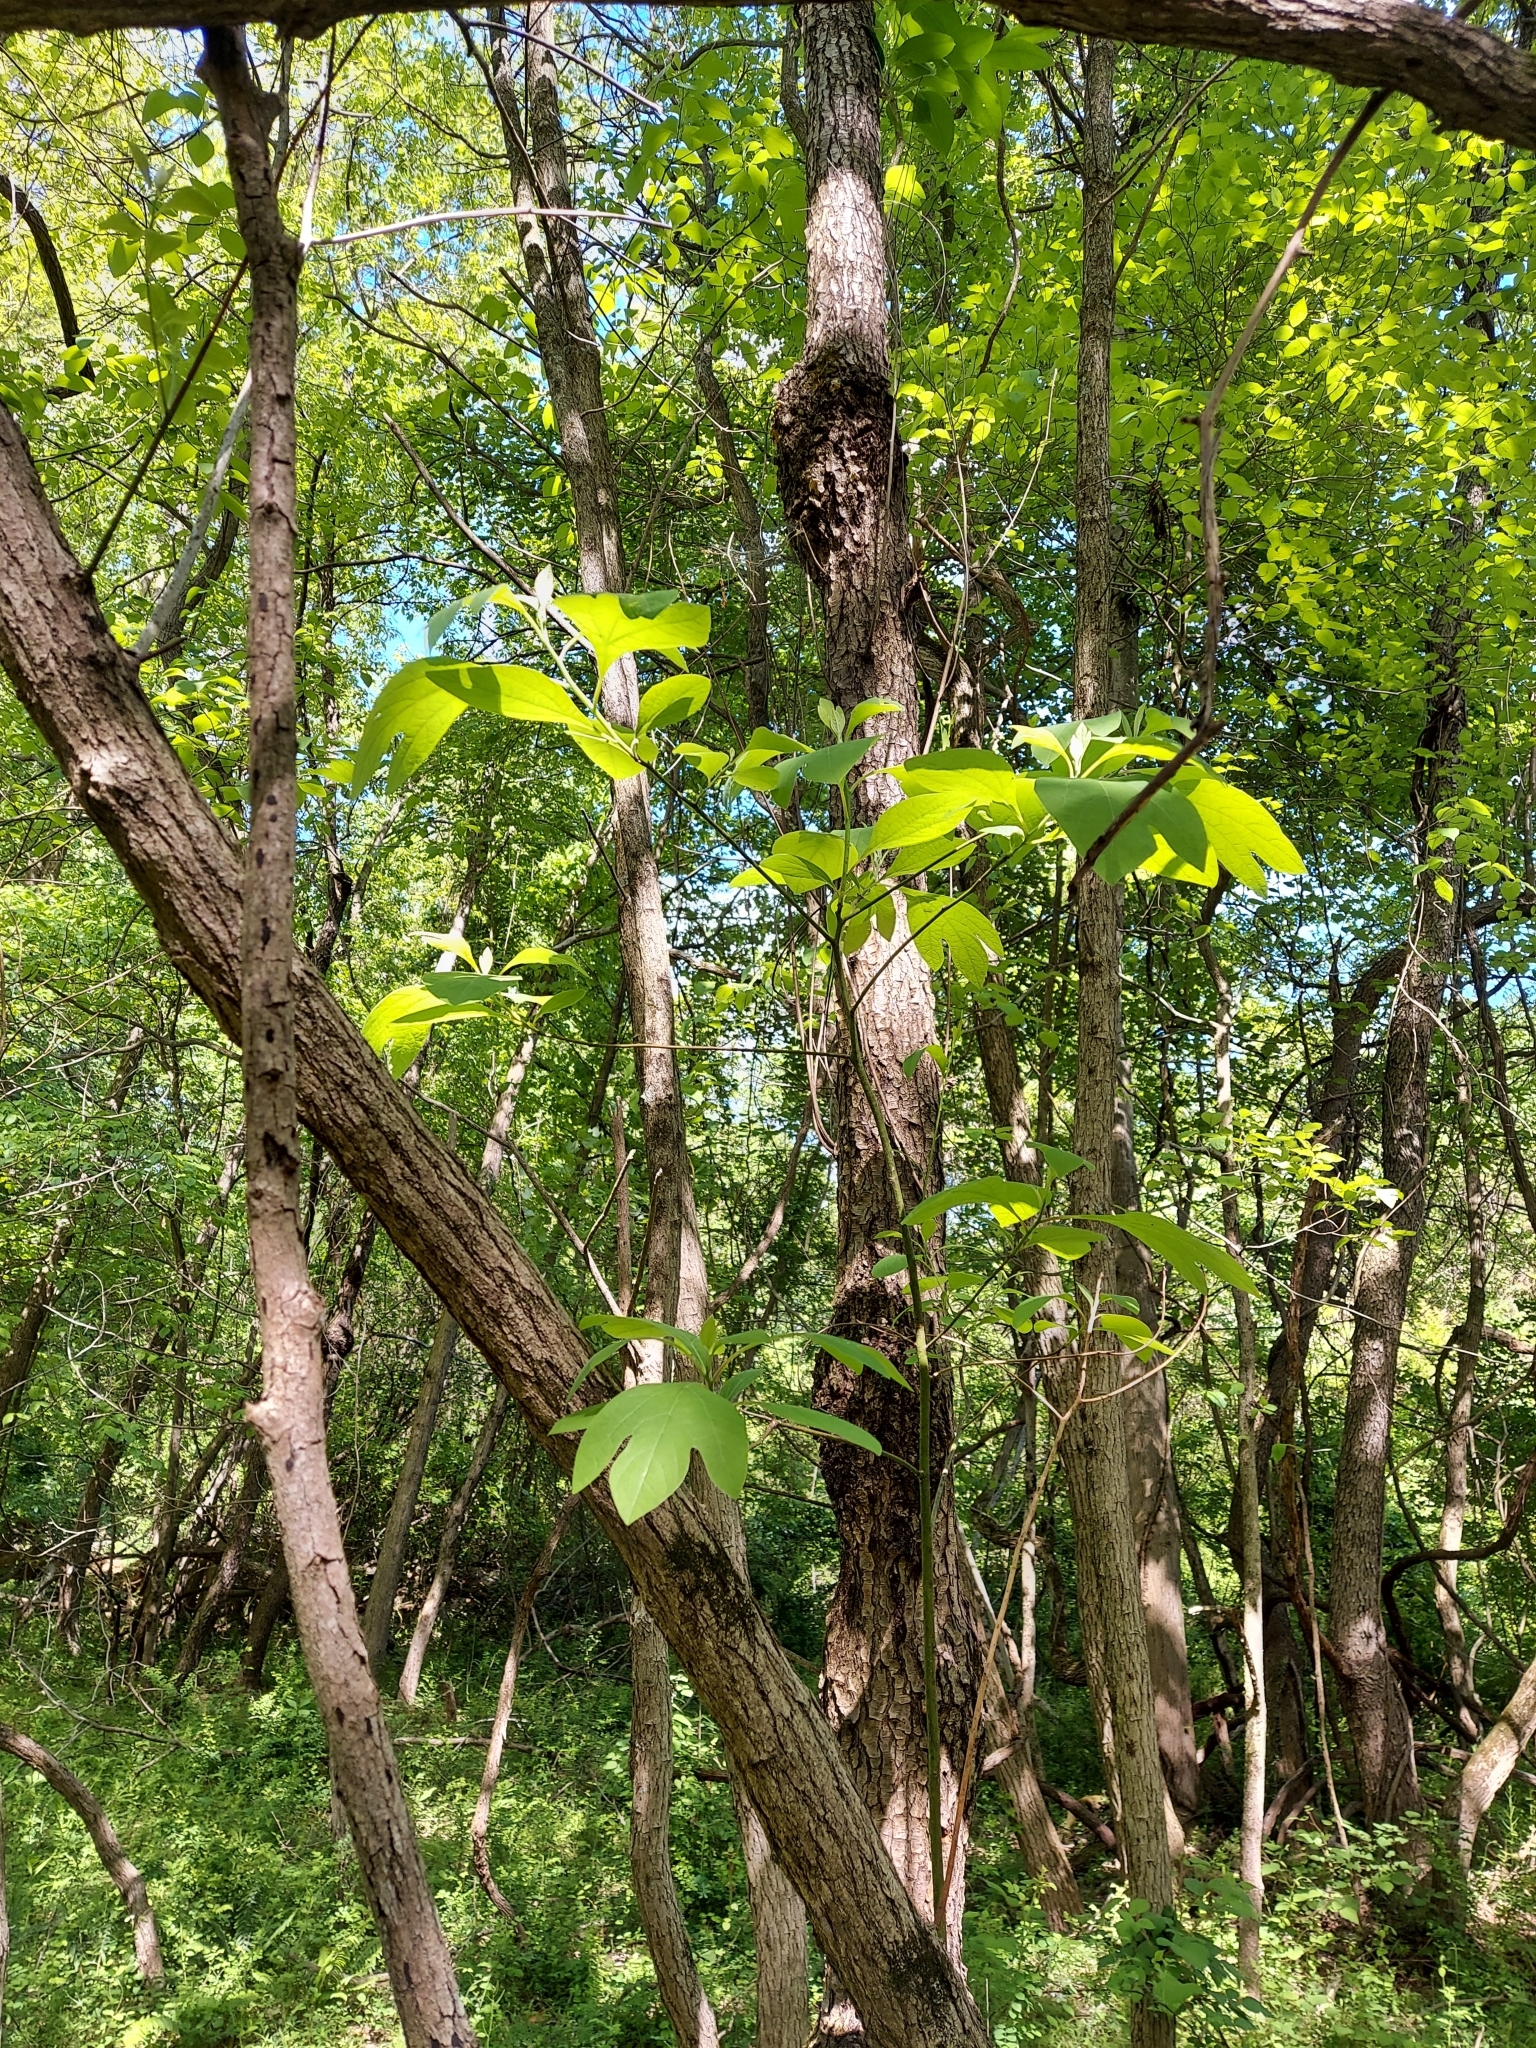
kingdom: Plantae
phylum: Tracheophyta
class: Magnoliopsida
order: Laurales
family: Lauraceae
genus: Sassafras
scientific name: Sassafras albidum
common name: Sassafras
